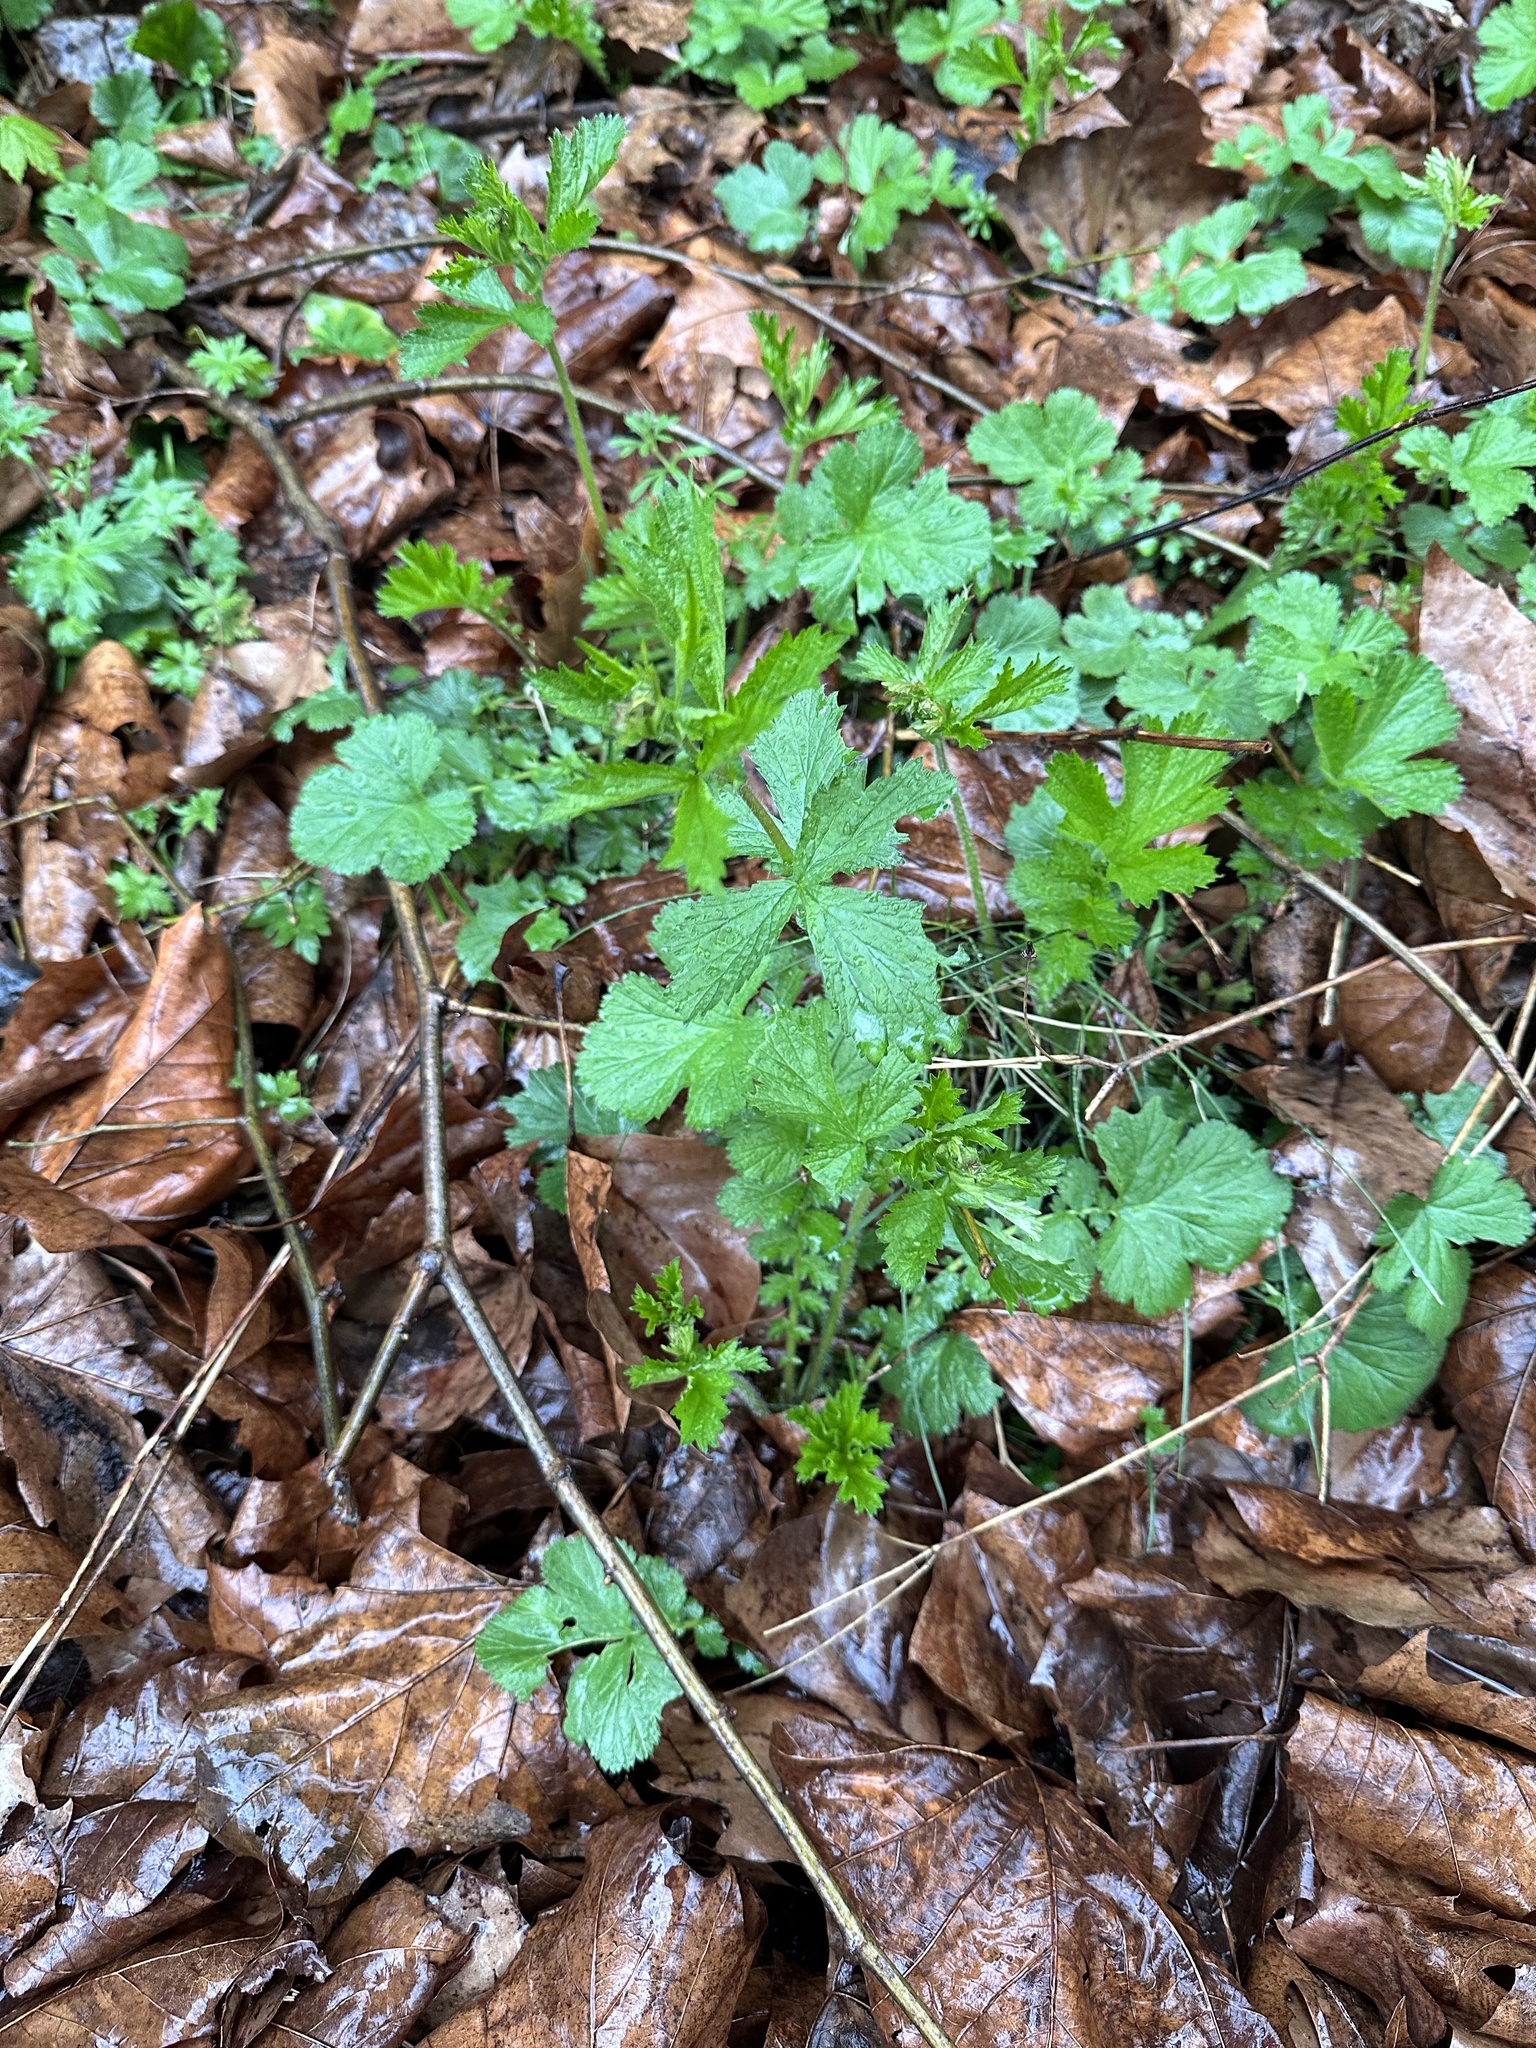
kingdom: Plantae
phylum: Tracheophyta
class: Magnoliopsida
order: Rosales
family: Rosaceae
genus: Geum
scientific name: Geum urbanum
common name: Wood avens
